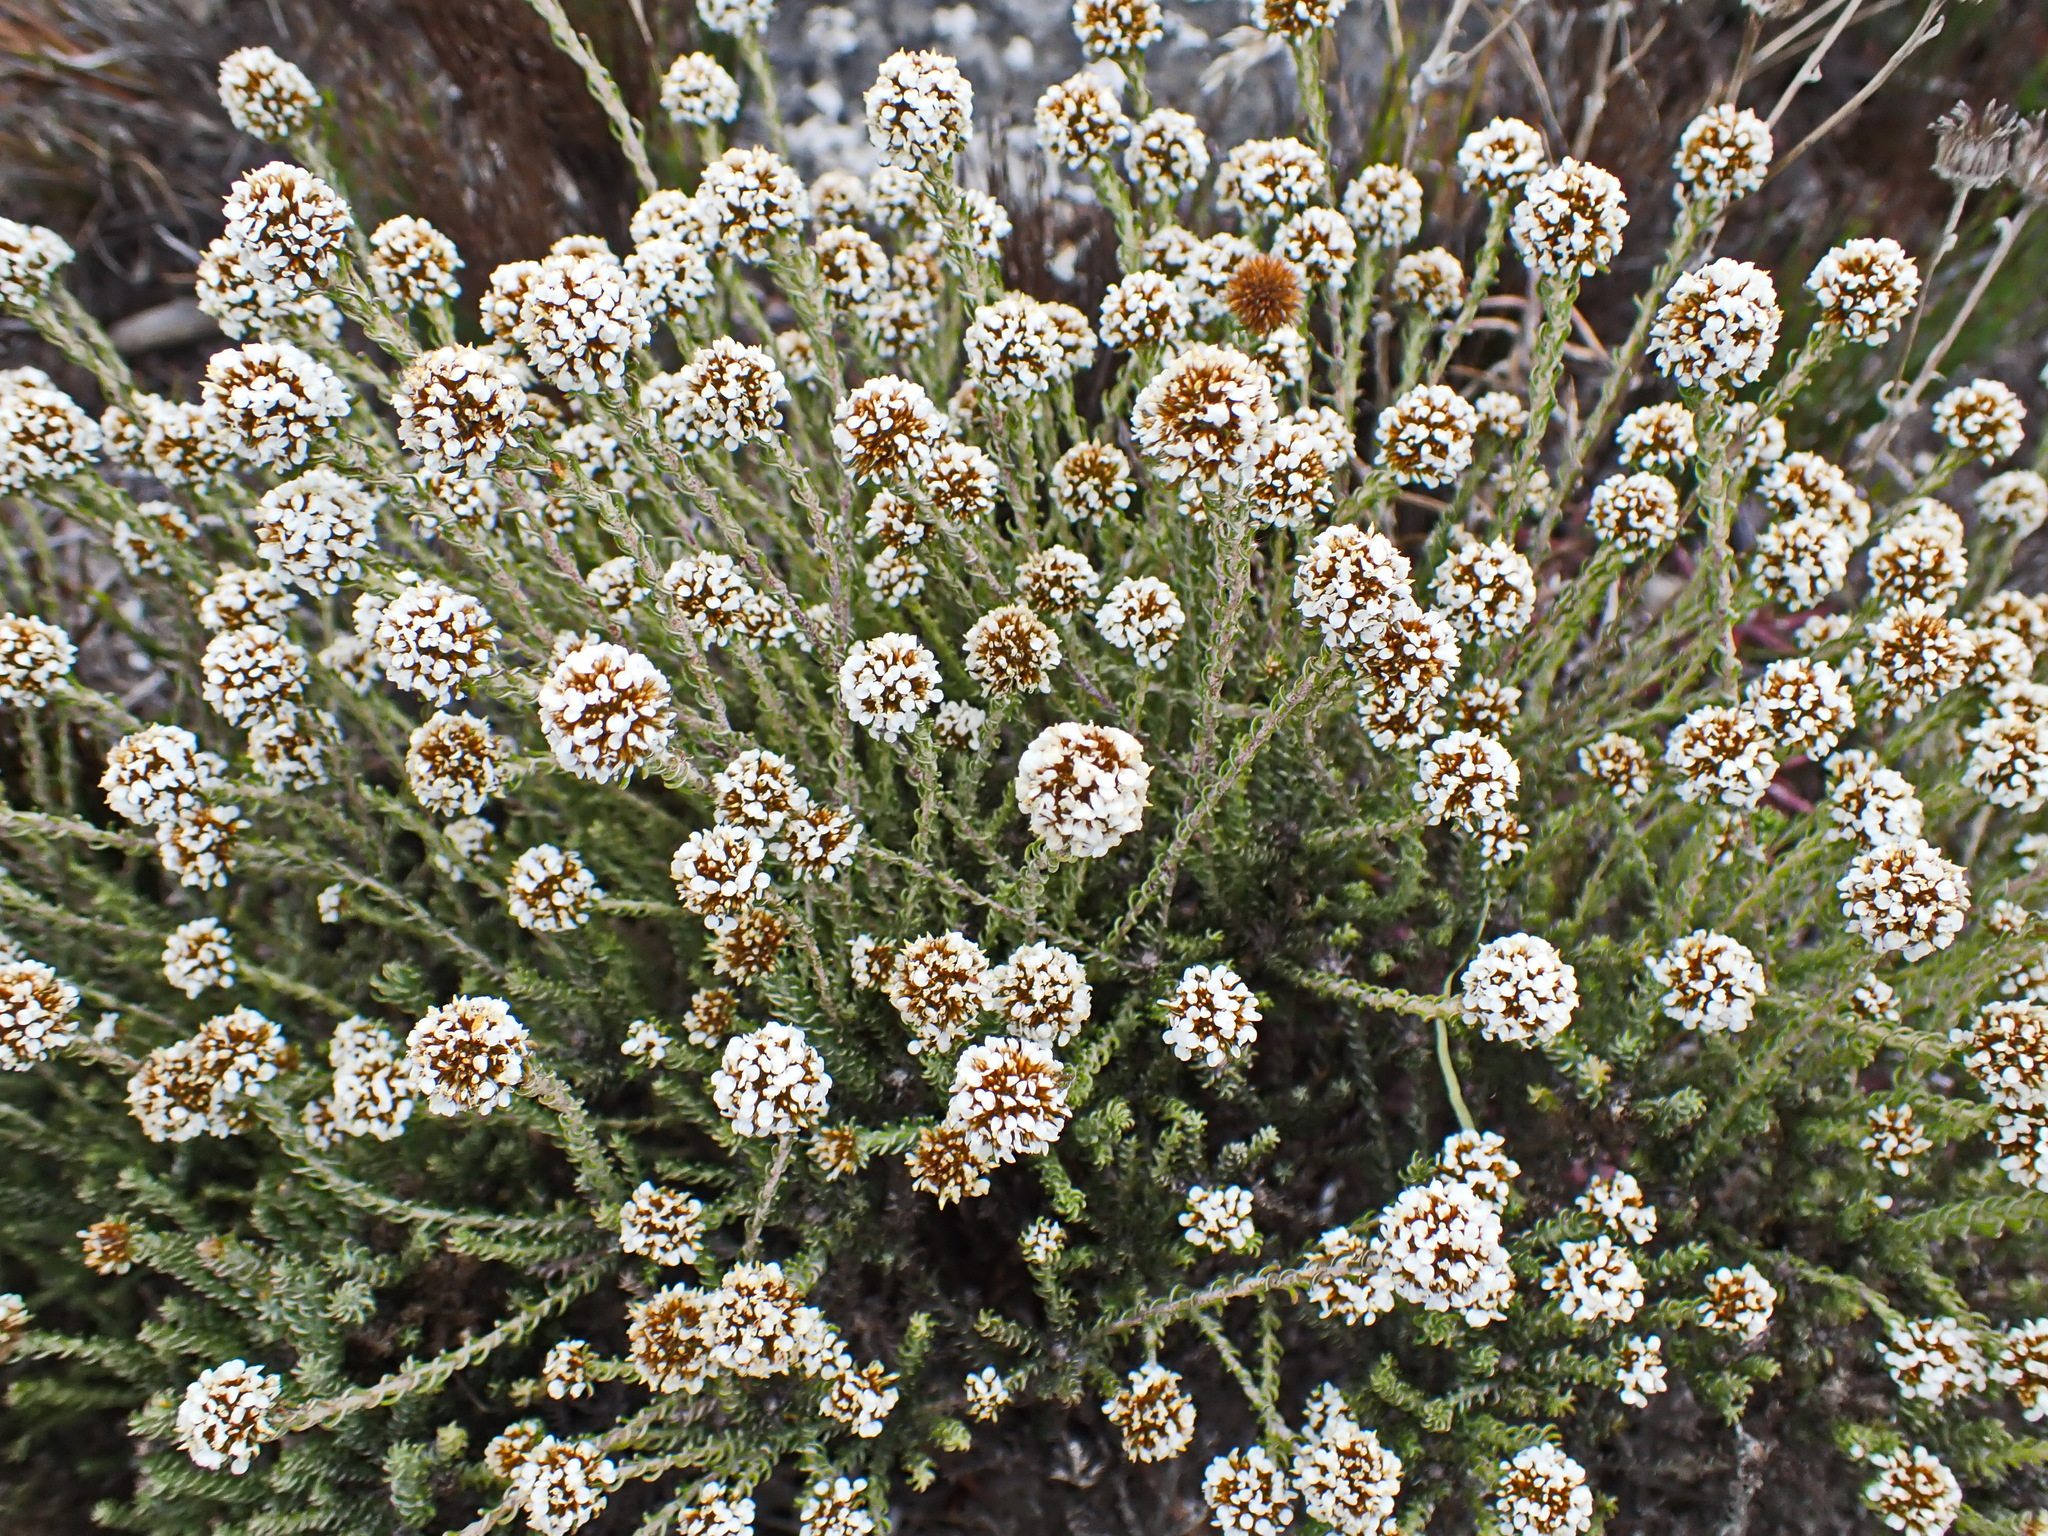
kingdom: Plantae
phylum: Tracheophyta
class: Magnoliopsida
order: Asterales
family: Asteraceae
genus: Disparago
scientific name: Disparago anomala
